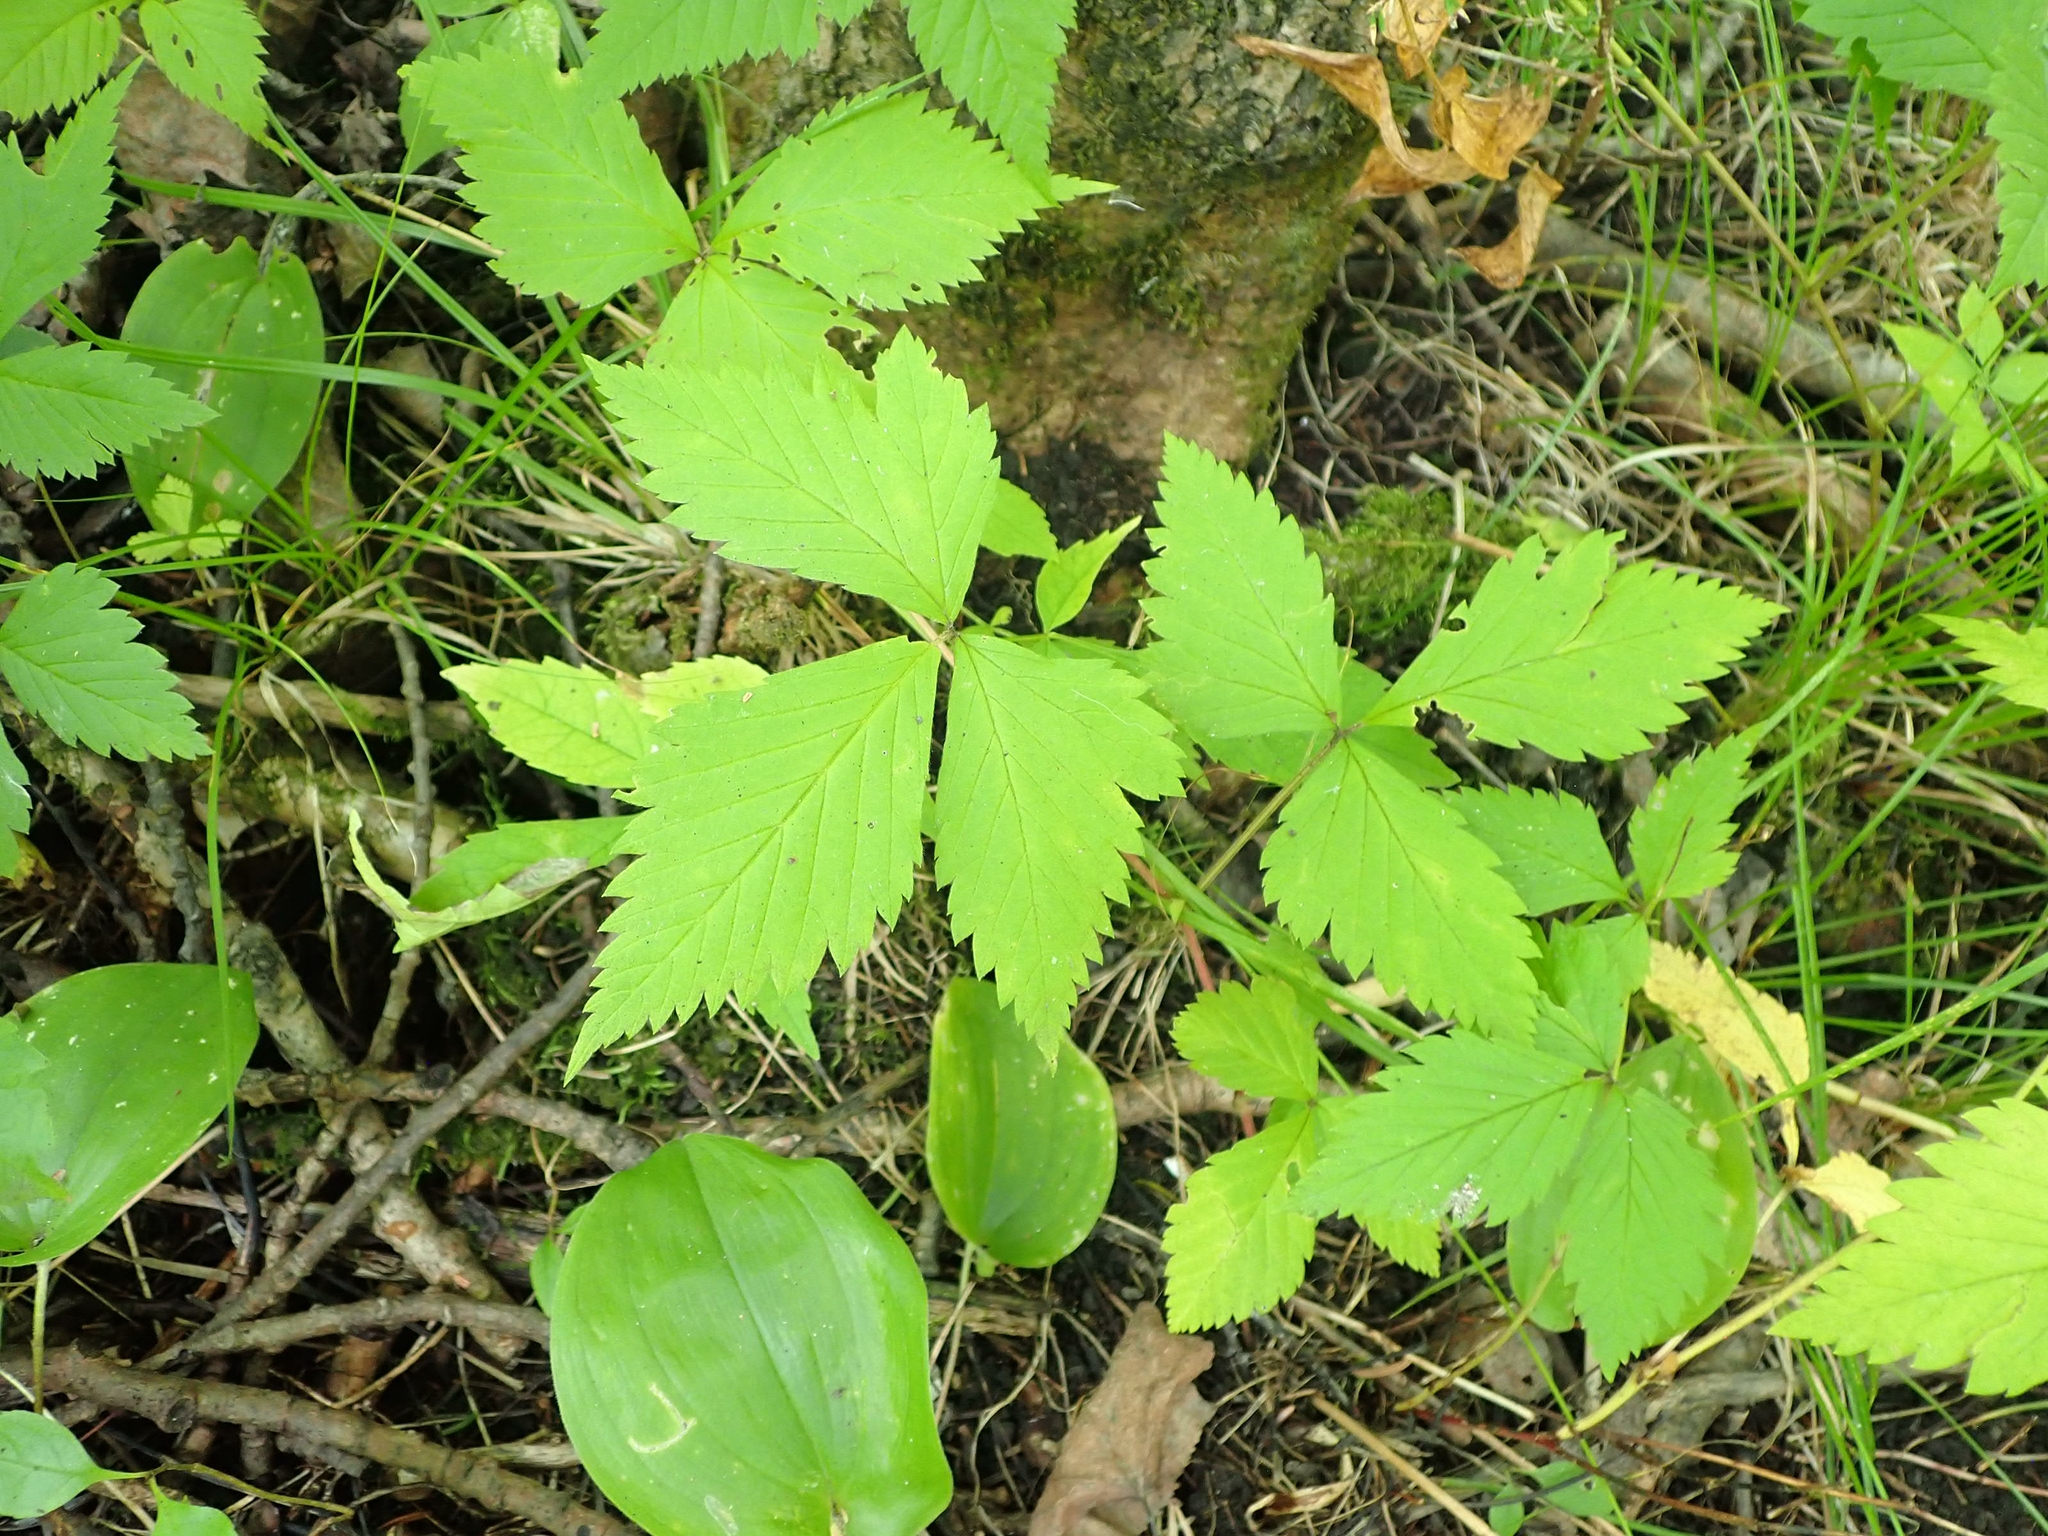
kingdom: Plantae
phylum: Tracheophyta
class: Magnoliopsida
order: Rosales
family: Rosaceae
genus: Rubus
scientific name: Rubus pubescens
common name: Dwarf raspberry
